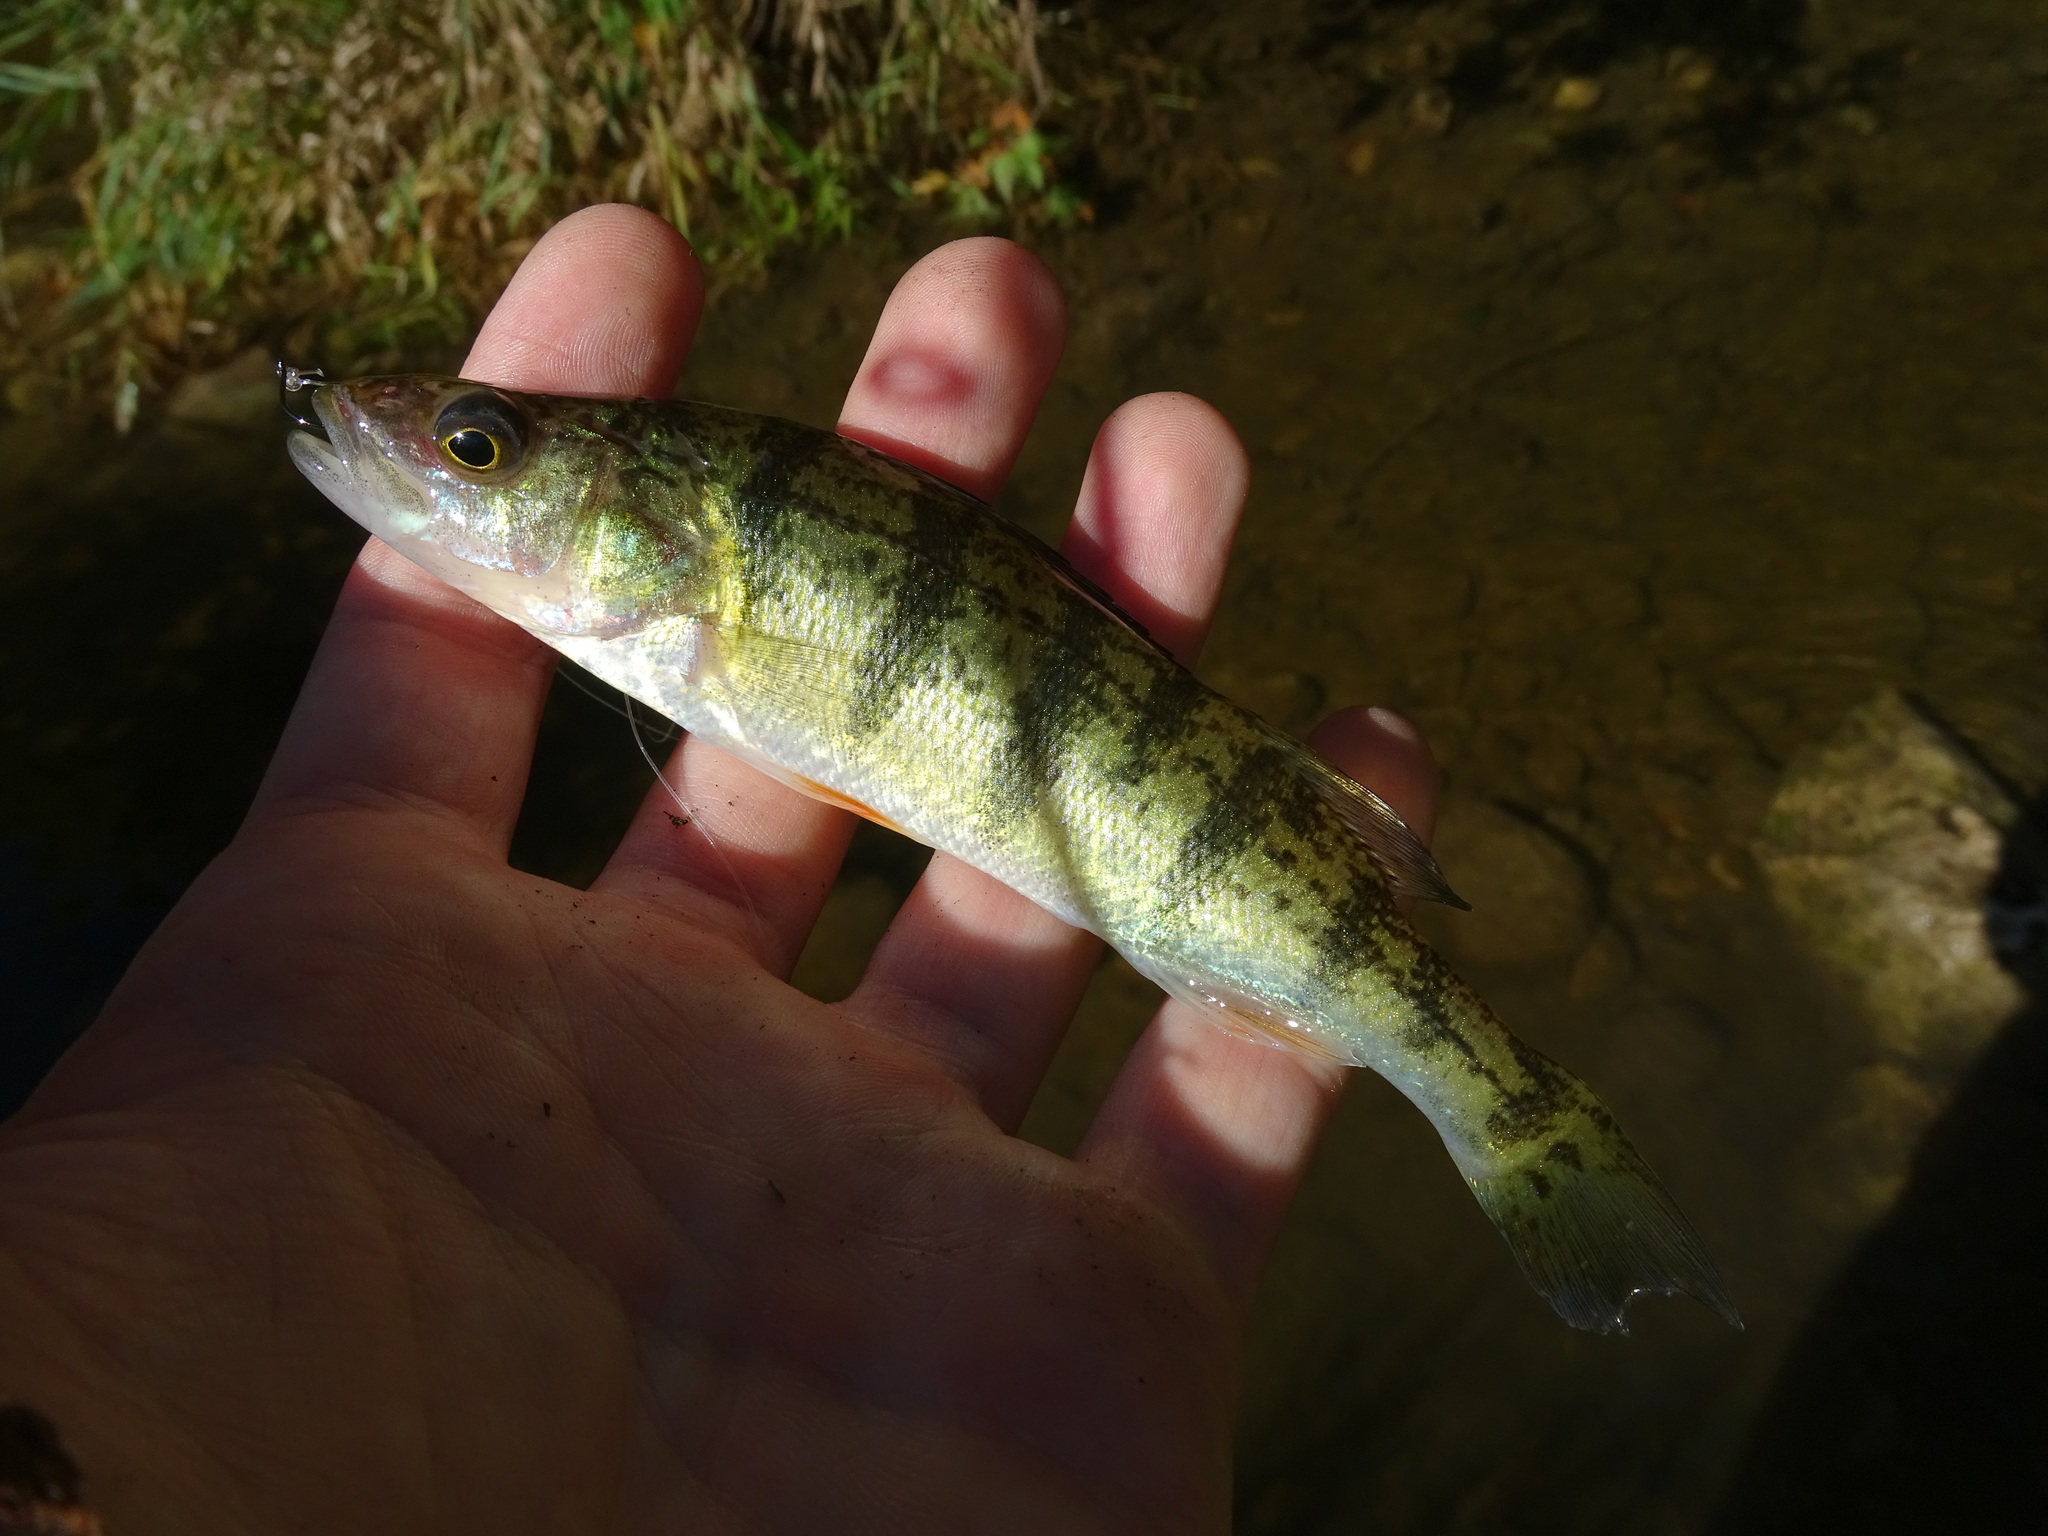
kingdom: Animalia
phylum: Chordata
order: Perciformes
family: Percidae
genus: Perca
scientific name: Perca flavescens
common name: Yellow perch
